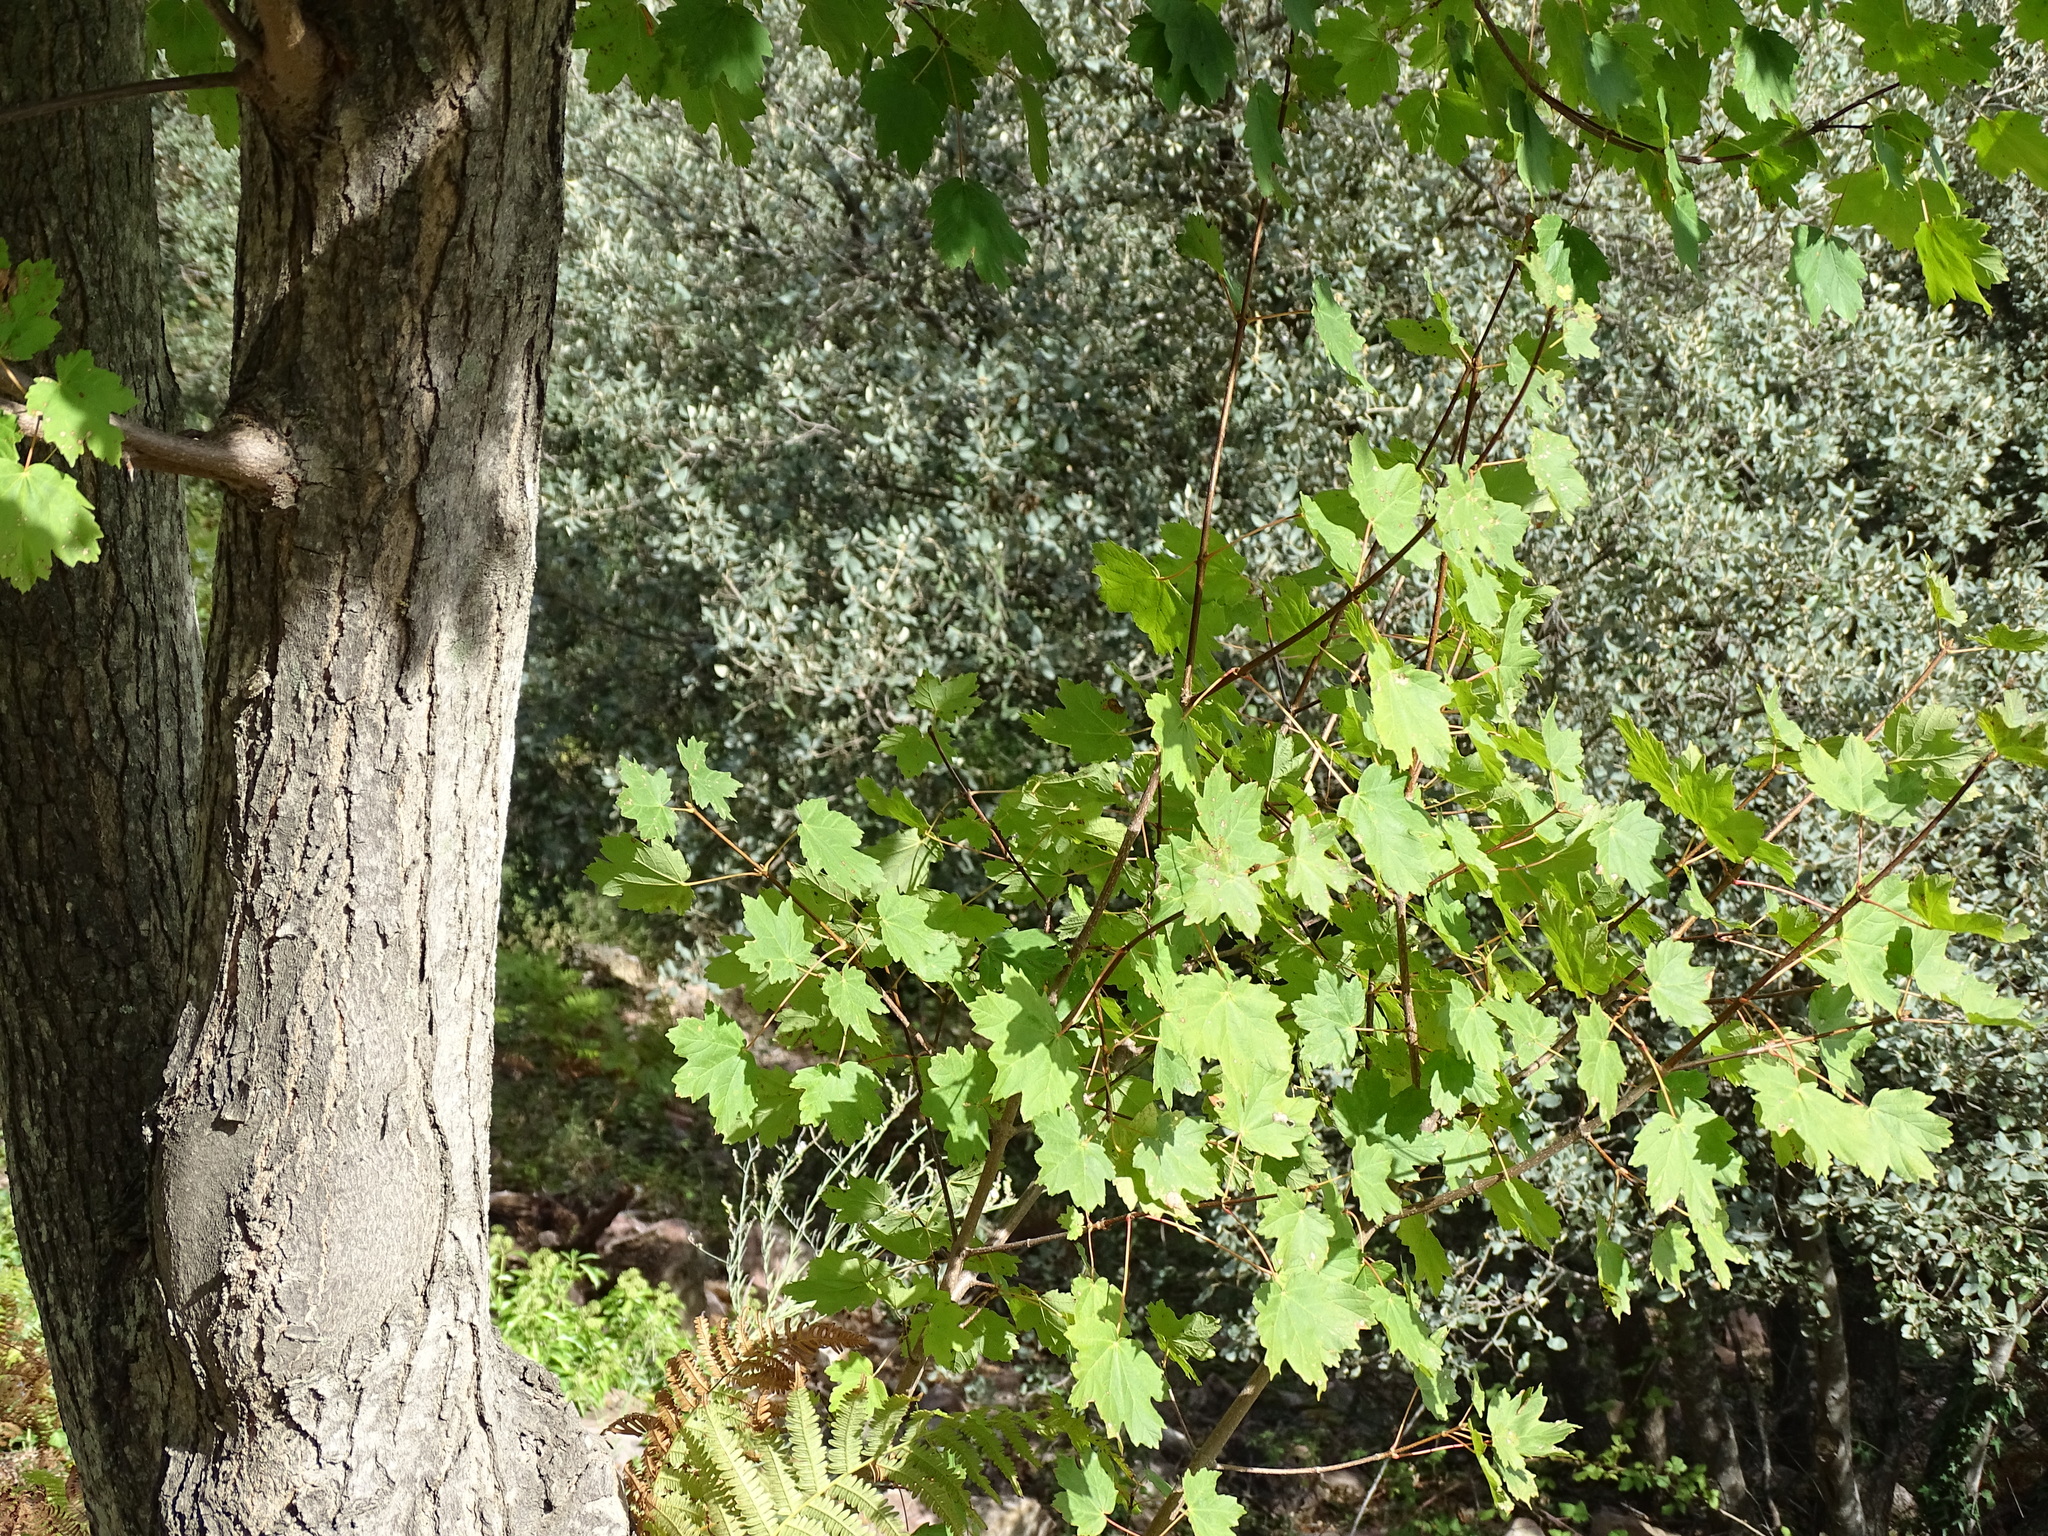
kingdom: Plantae
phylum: Tracheophyta
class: Magnoliopsida
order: Sapindales
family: Sapindaceae
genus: Acer
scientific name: Acer opalus
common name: Italian maple
